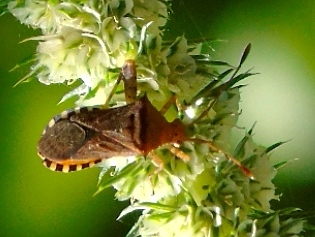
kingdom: Animalia
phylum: Arthropoda
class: Insecta
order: Hemiptera
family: Coreidae
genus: Zicca
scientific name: Zicca
